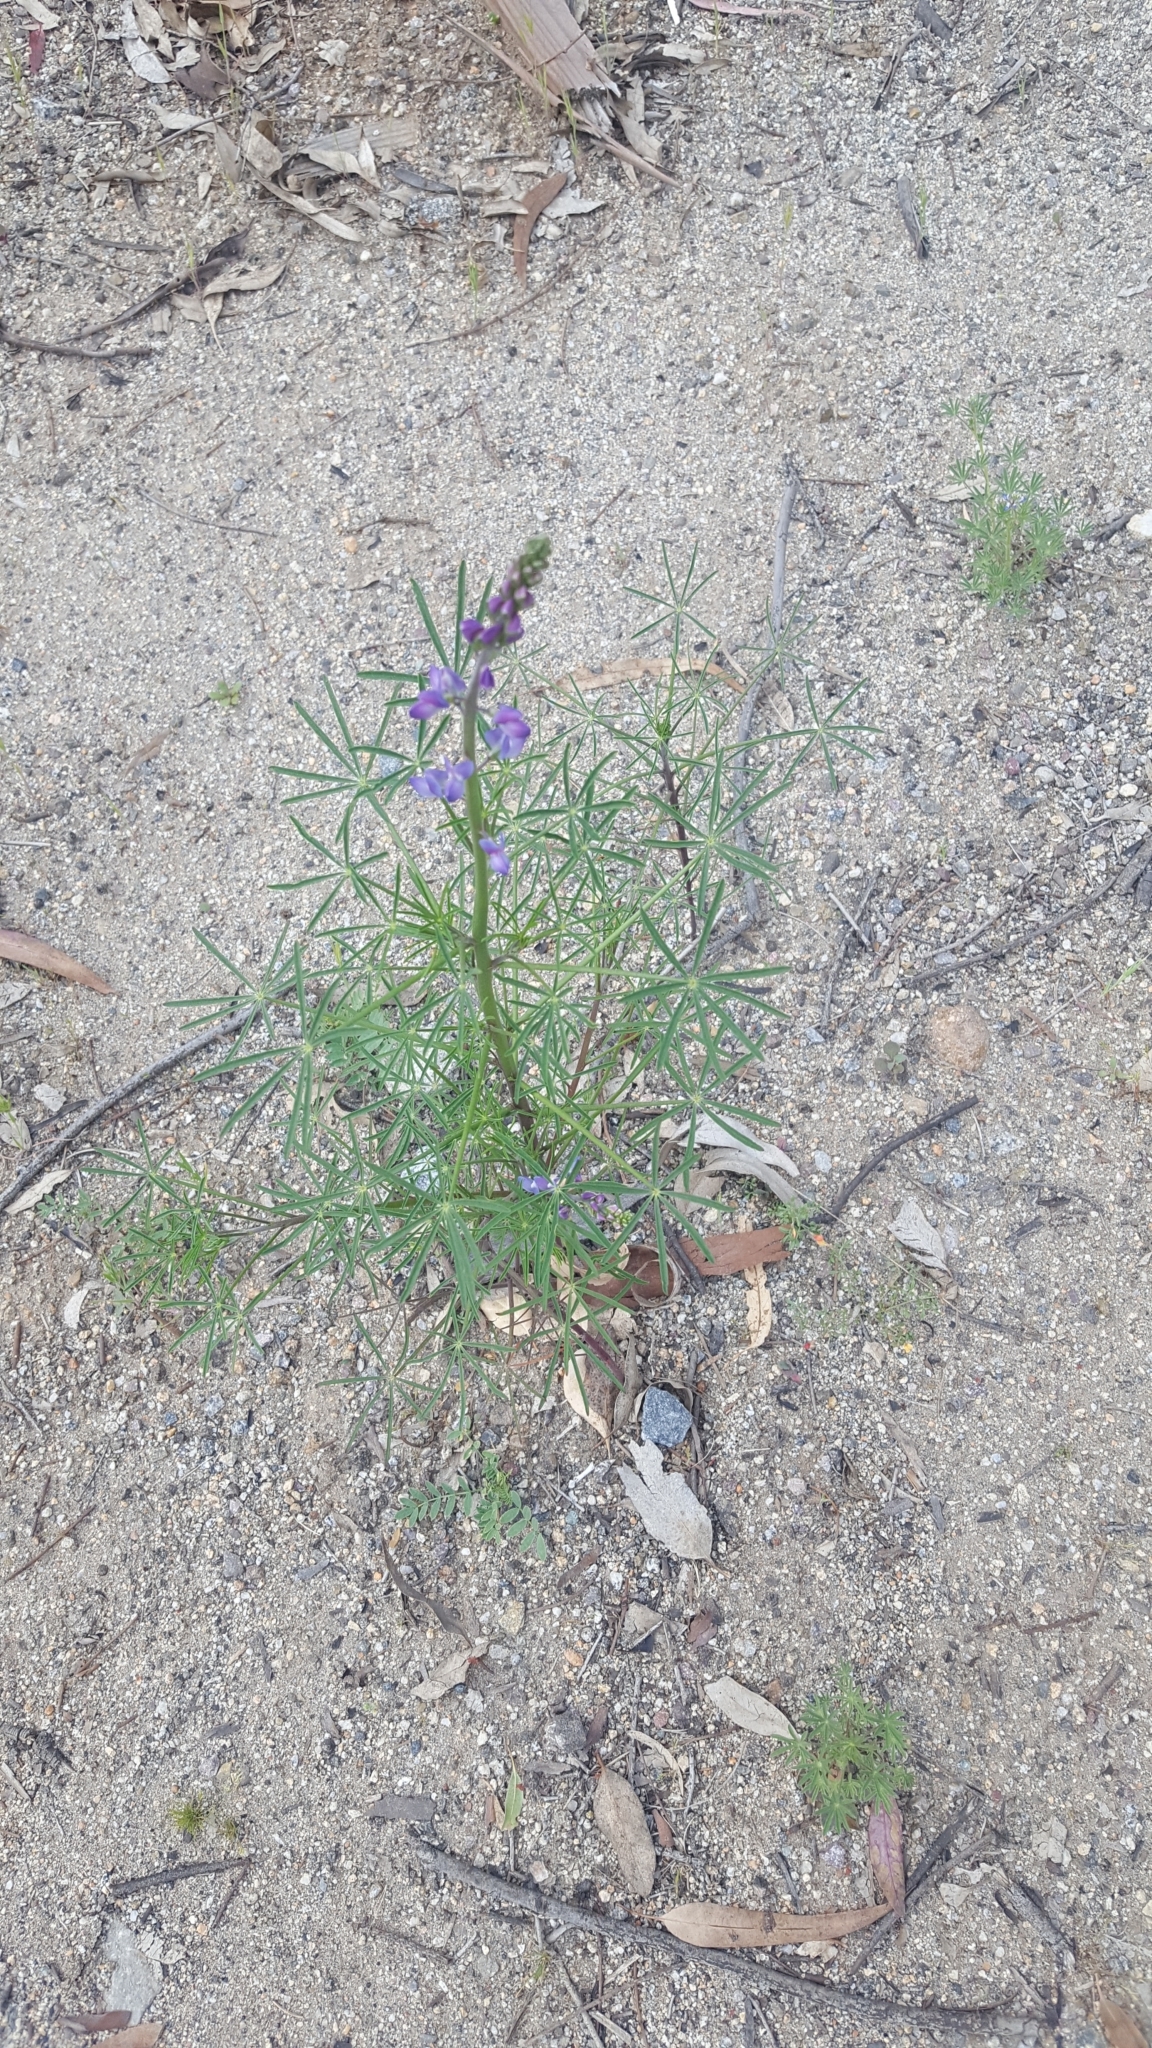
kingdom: Plantae
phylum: Tracheophyta
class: Magnoliopsida
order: Fabales
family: Fabaceae
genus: Lupinus
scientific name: Lupinus truncatus
